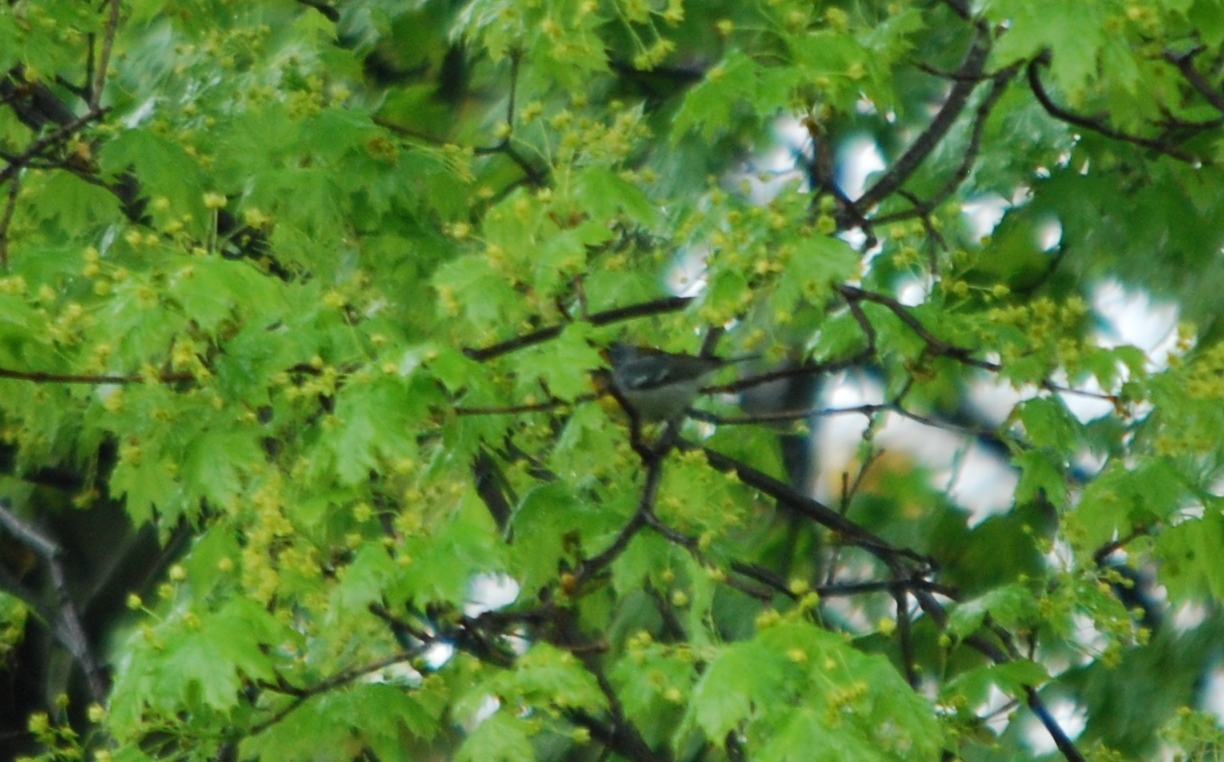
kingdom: Animalia
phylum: Chordata
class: Aves
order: Passeriformes
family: Parulidae
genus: Setophaga
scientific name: Setophaga americana
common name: Northern parula
